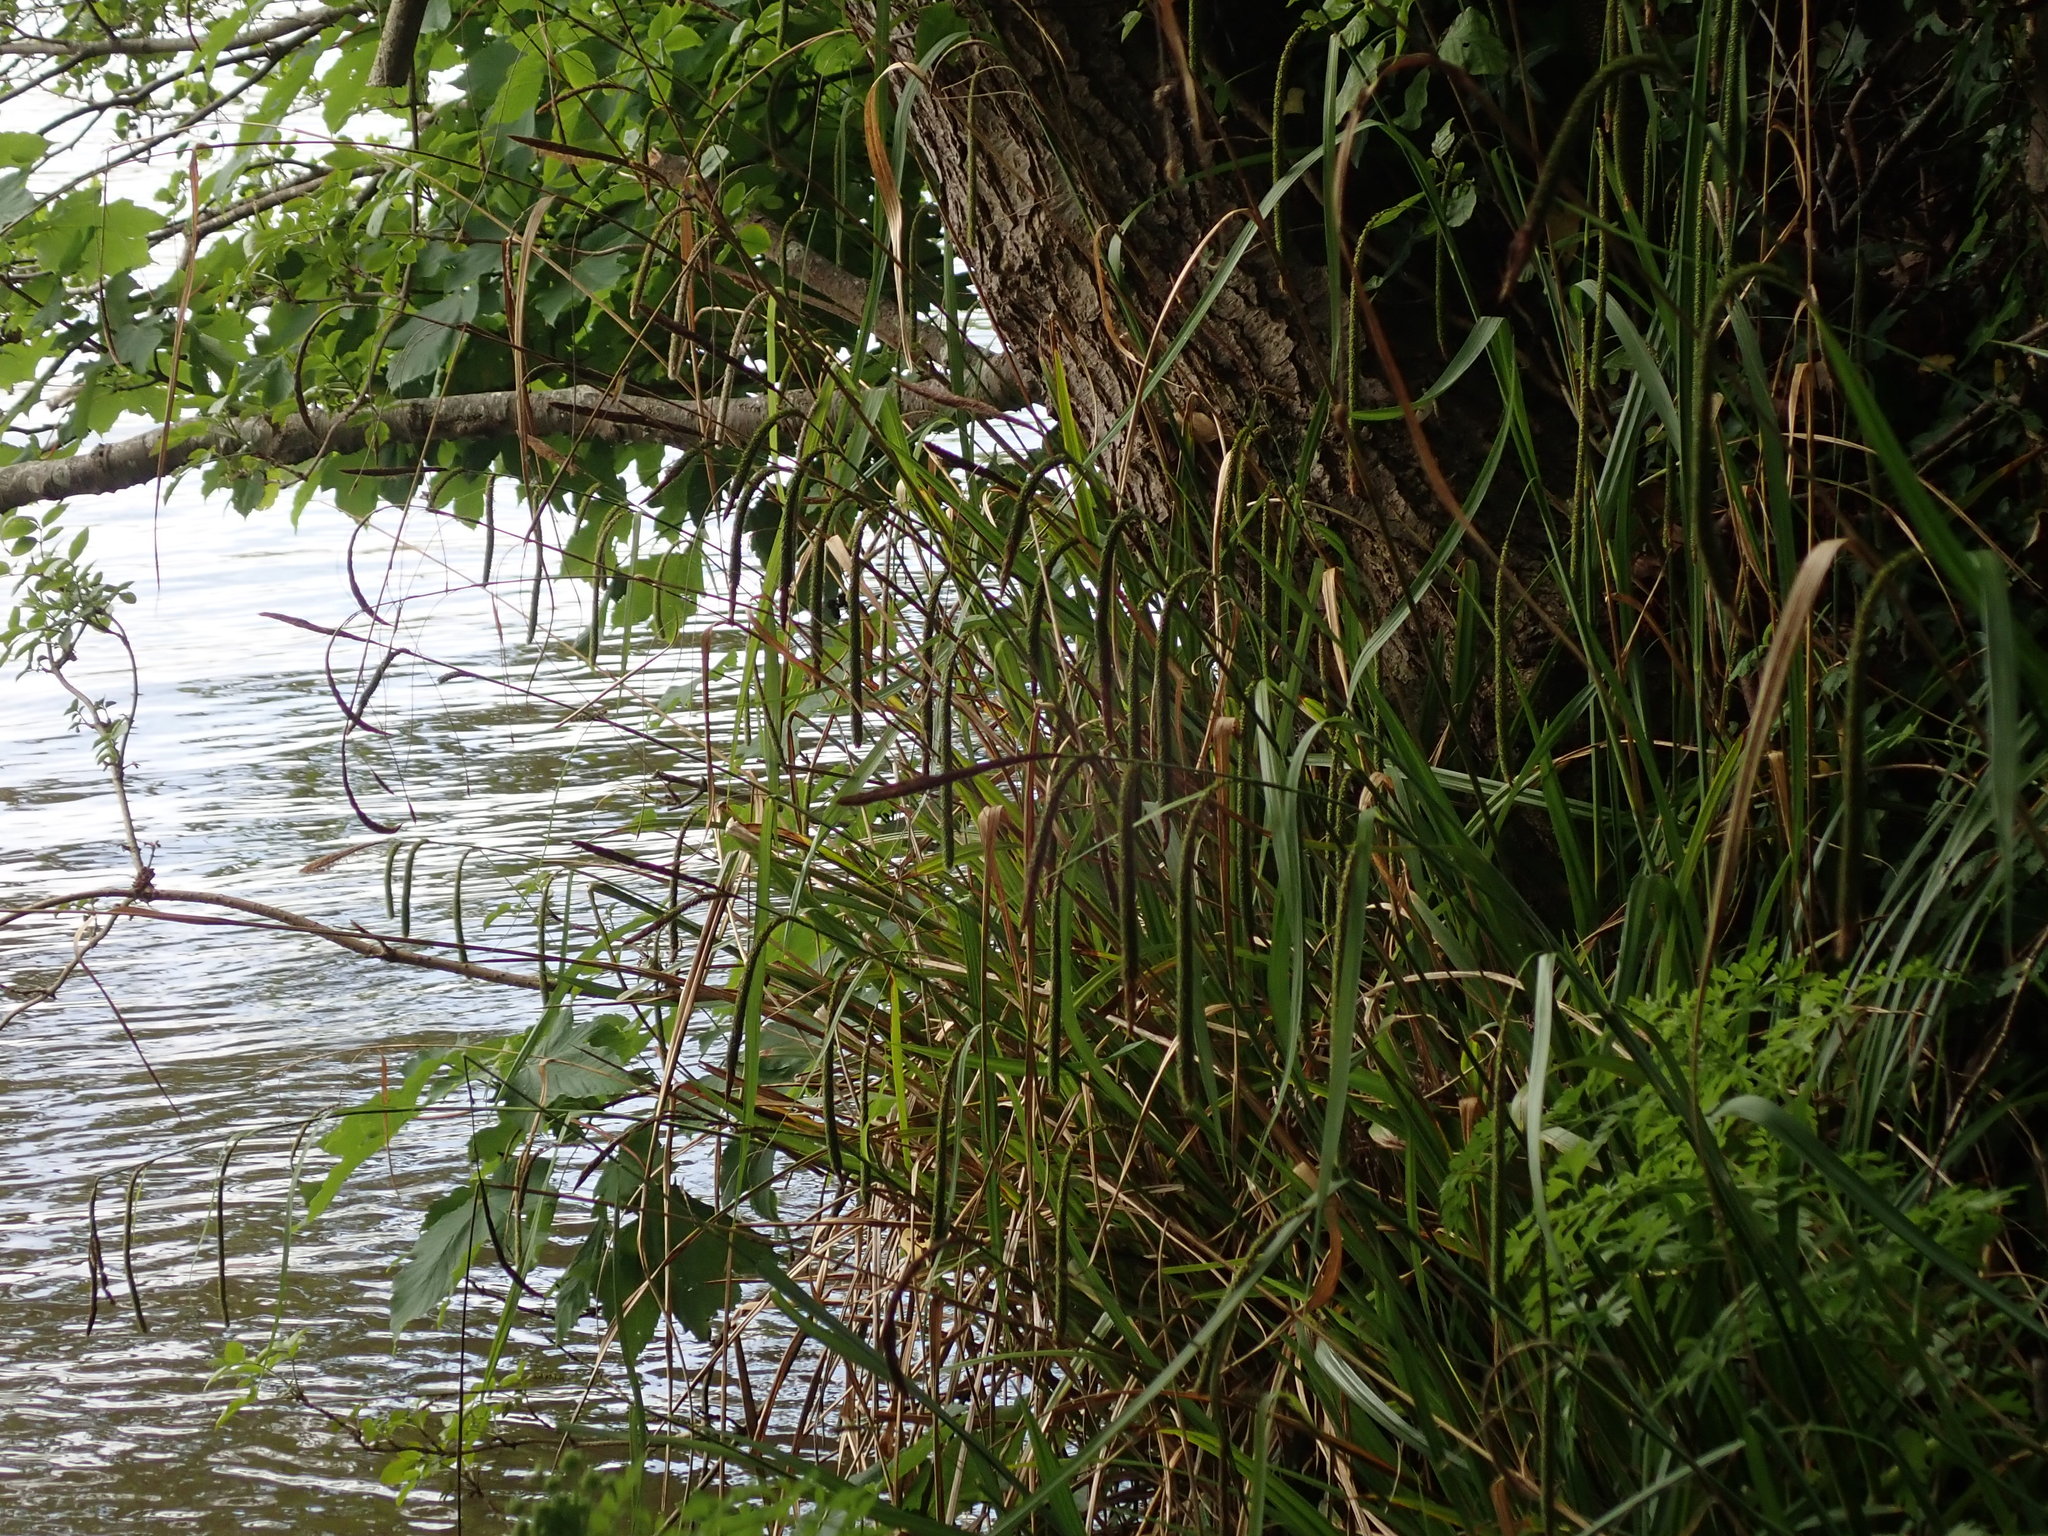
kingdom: Plantae
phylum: Tracheophyta
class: Liliopsida
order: Poales
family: Cyperaceae
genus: Carex
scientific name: Carex pendula
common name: Pendulous sedge
